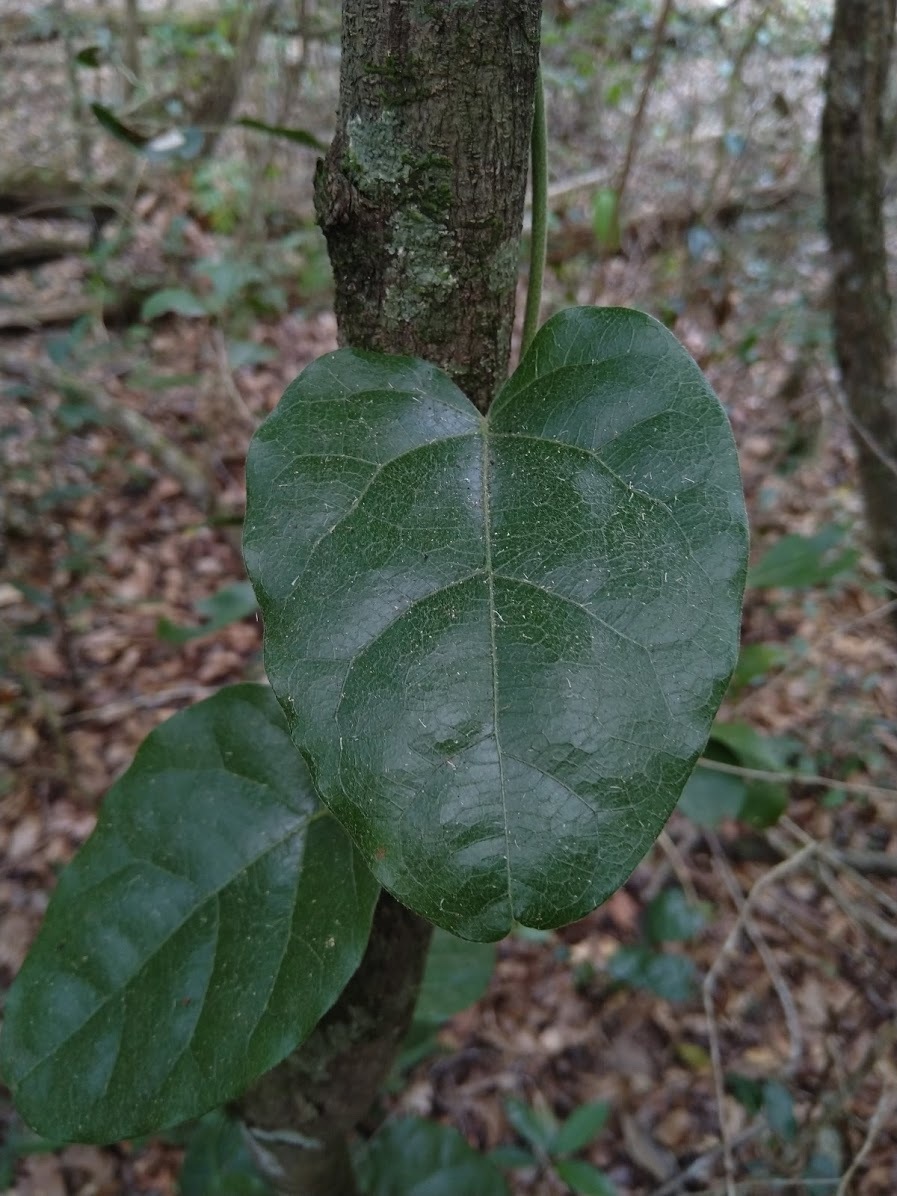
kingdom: Plantae
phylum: Tracheophyta
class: Magnoliopsida
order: Ranunculales
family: Menispermaceae
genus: Pleogyne
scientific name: Pleogyne australis
